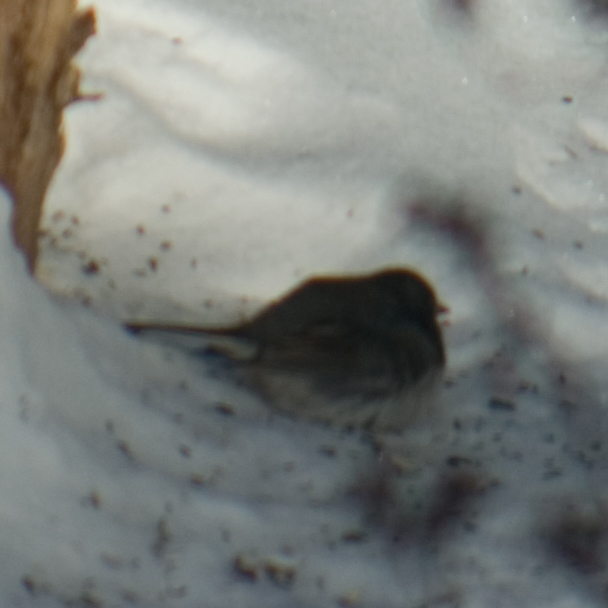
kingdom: Animalia
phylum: Chordata
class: Aves
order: Passeriformes
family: Passerellidae
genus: Junco
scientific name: Junco hyemalis
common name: Dark-eyed junco
